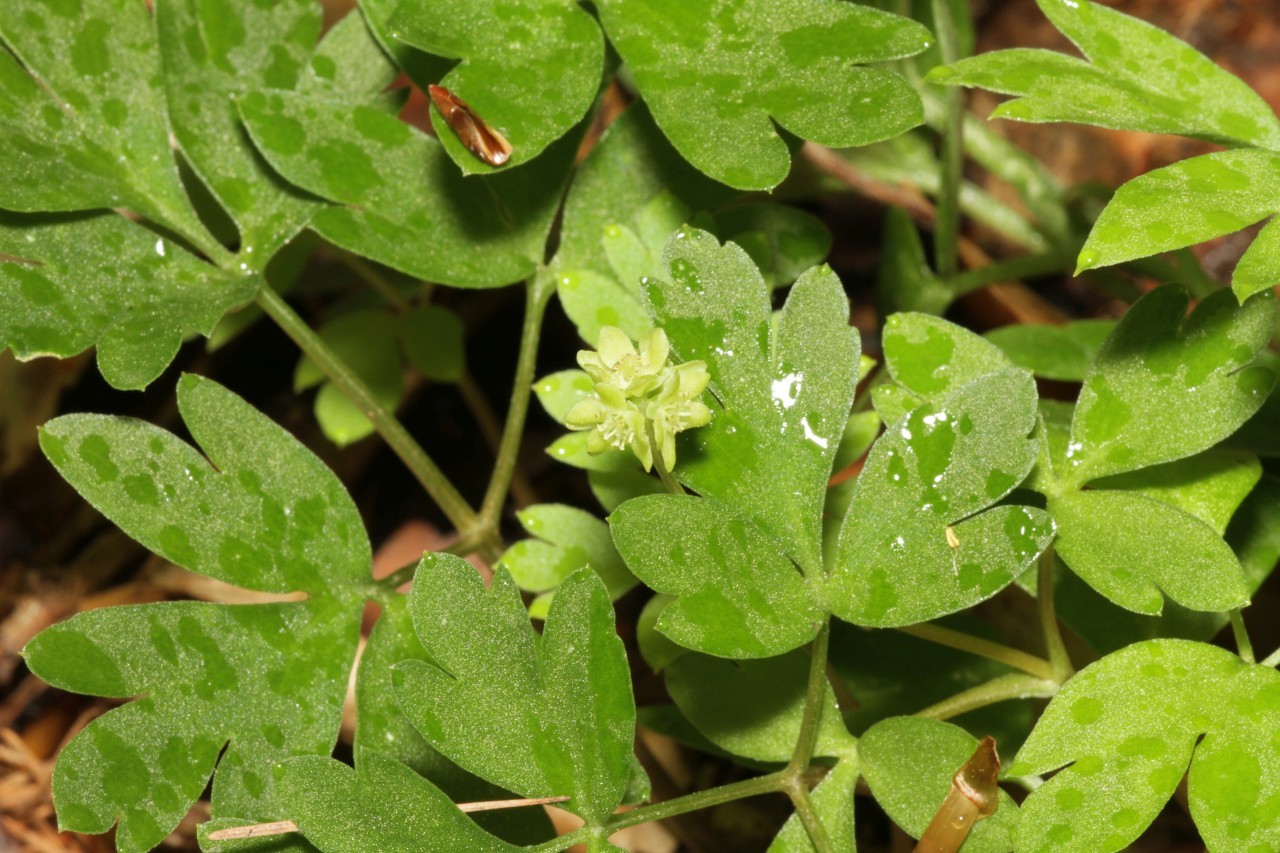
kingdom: Plantae
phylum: Tracheophyta
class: Magnoliopsida
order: Dipsacales
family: Viburnaceae
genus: Adoxa
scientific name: Adoxa moschatellina
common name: Moschatel
